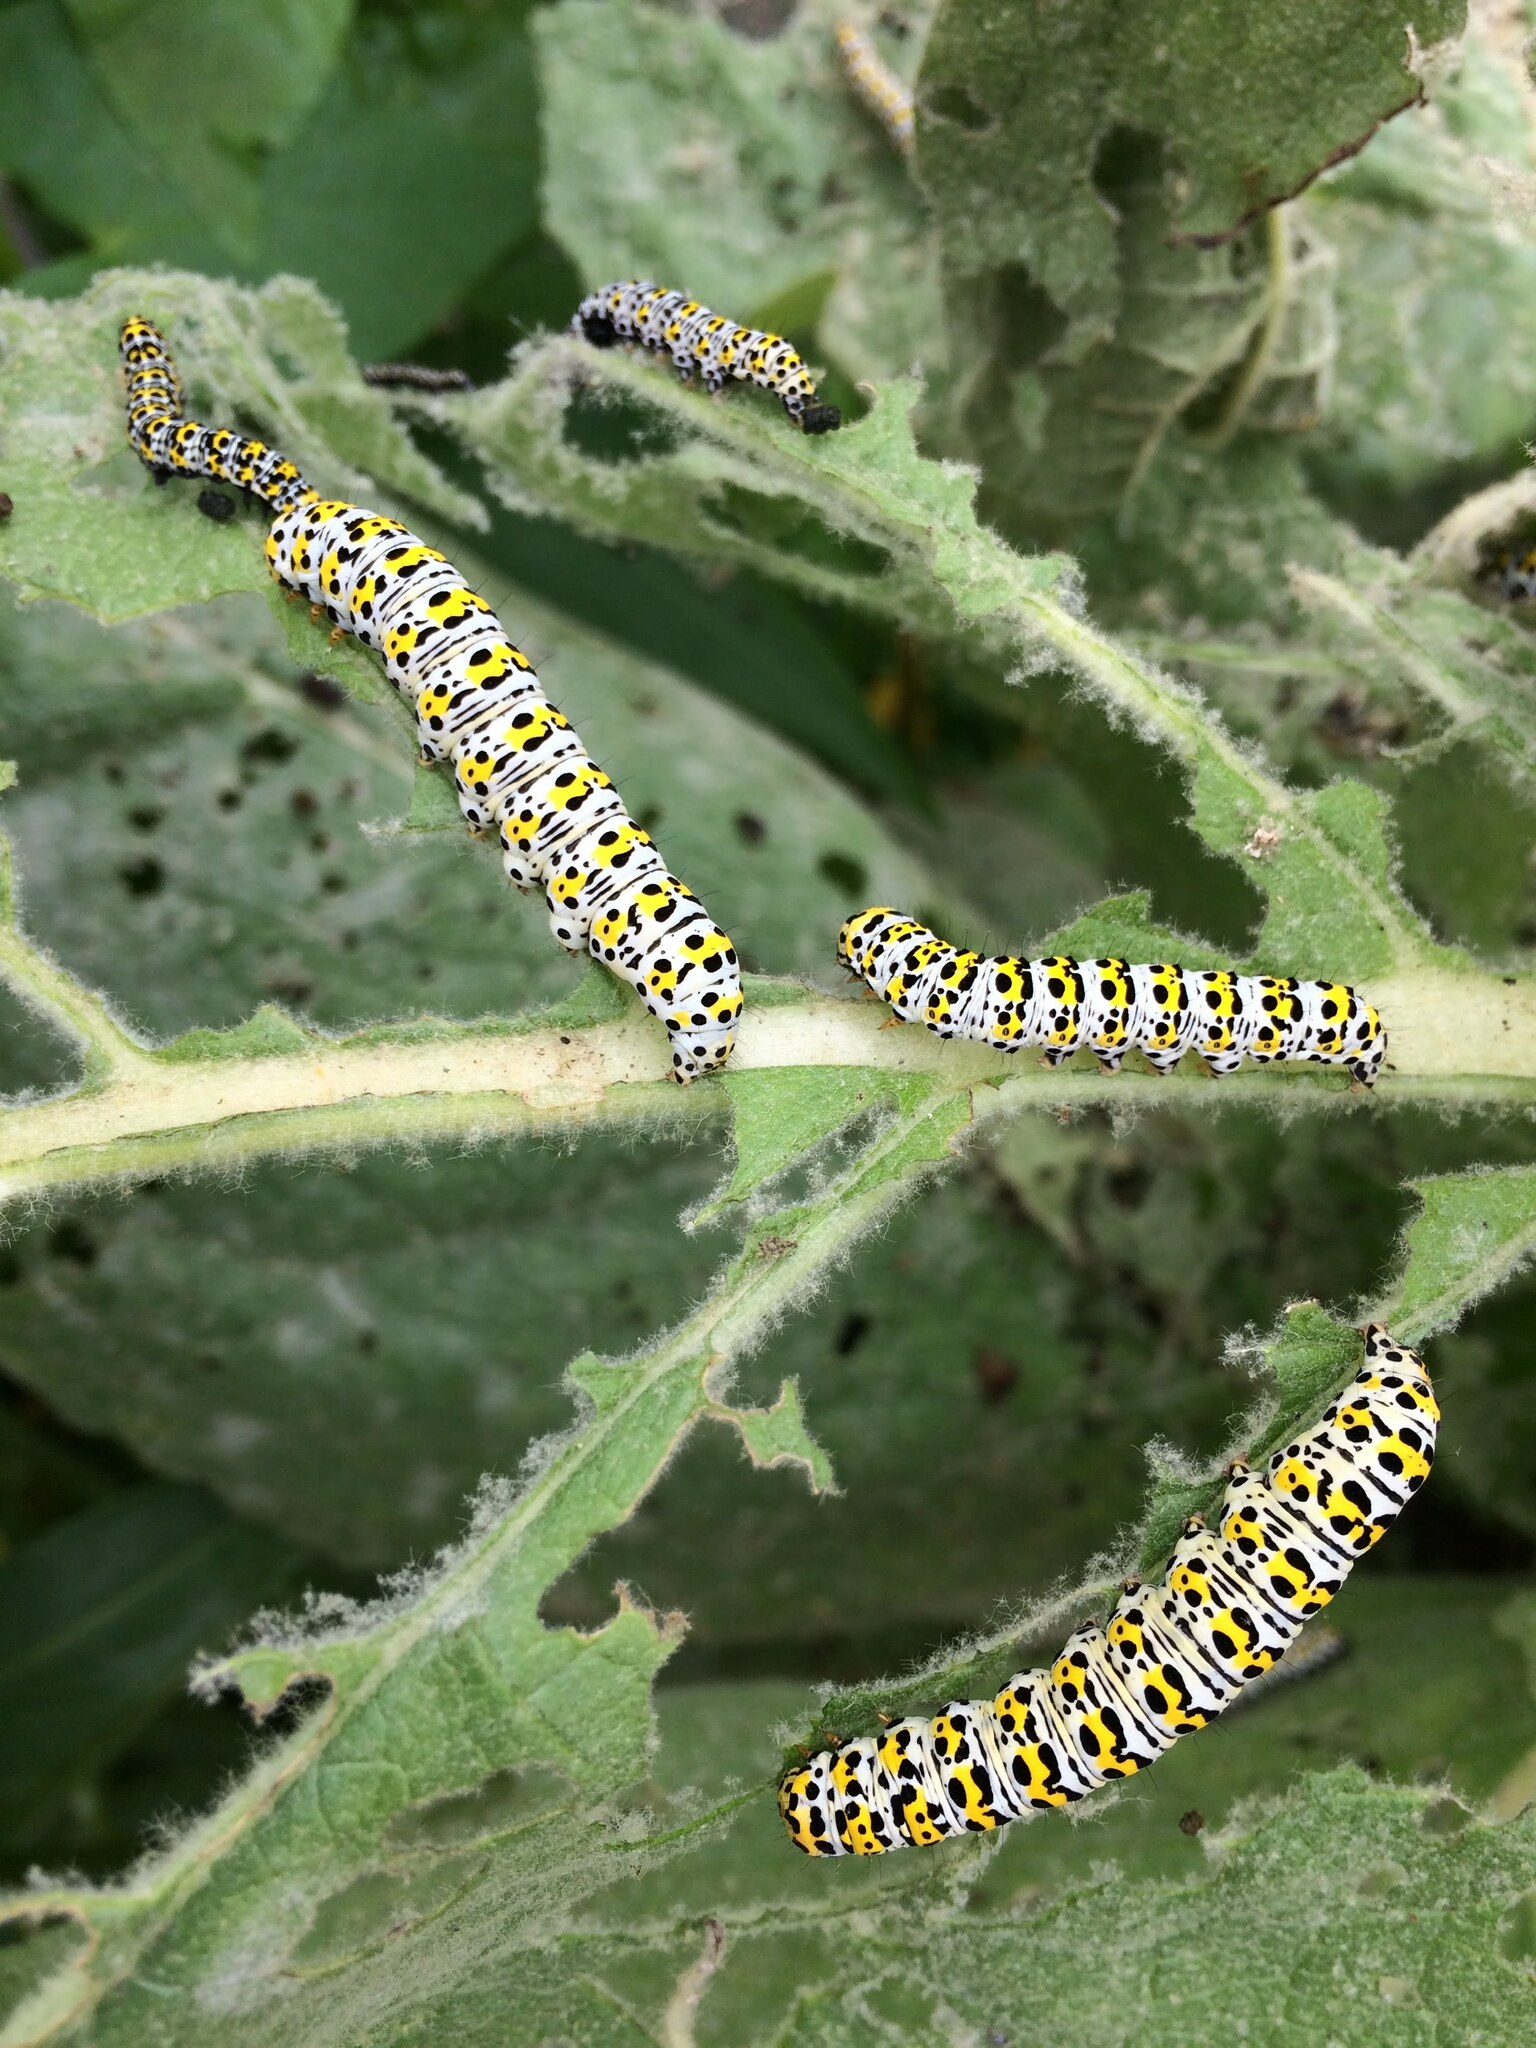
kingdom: Animalia
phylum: Arthropoda
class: Insecta
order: Lepidoptera
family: Noctuidae
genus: Cucullia
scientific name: Cucullia verbasci
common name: Mullein
